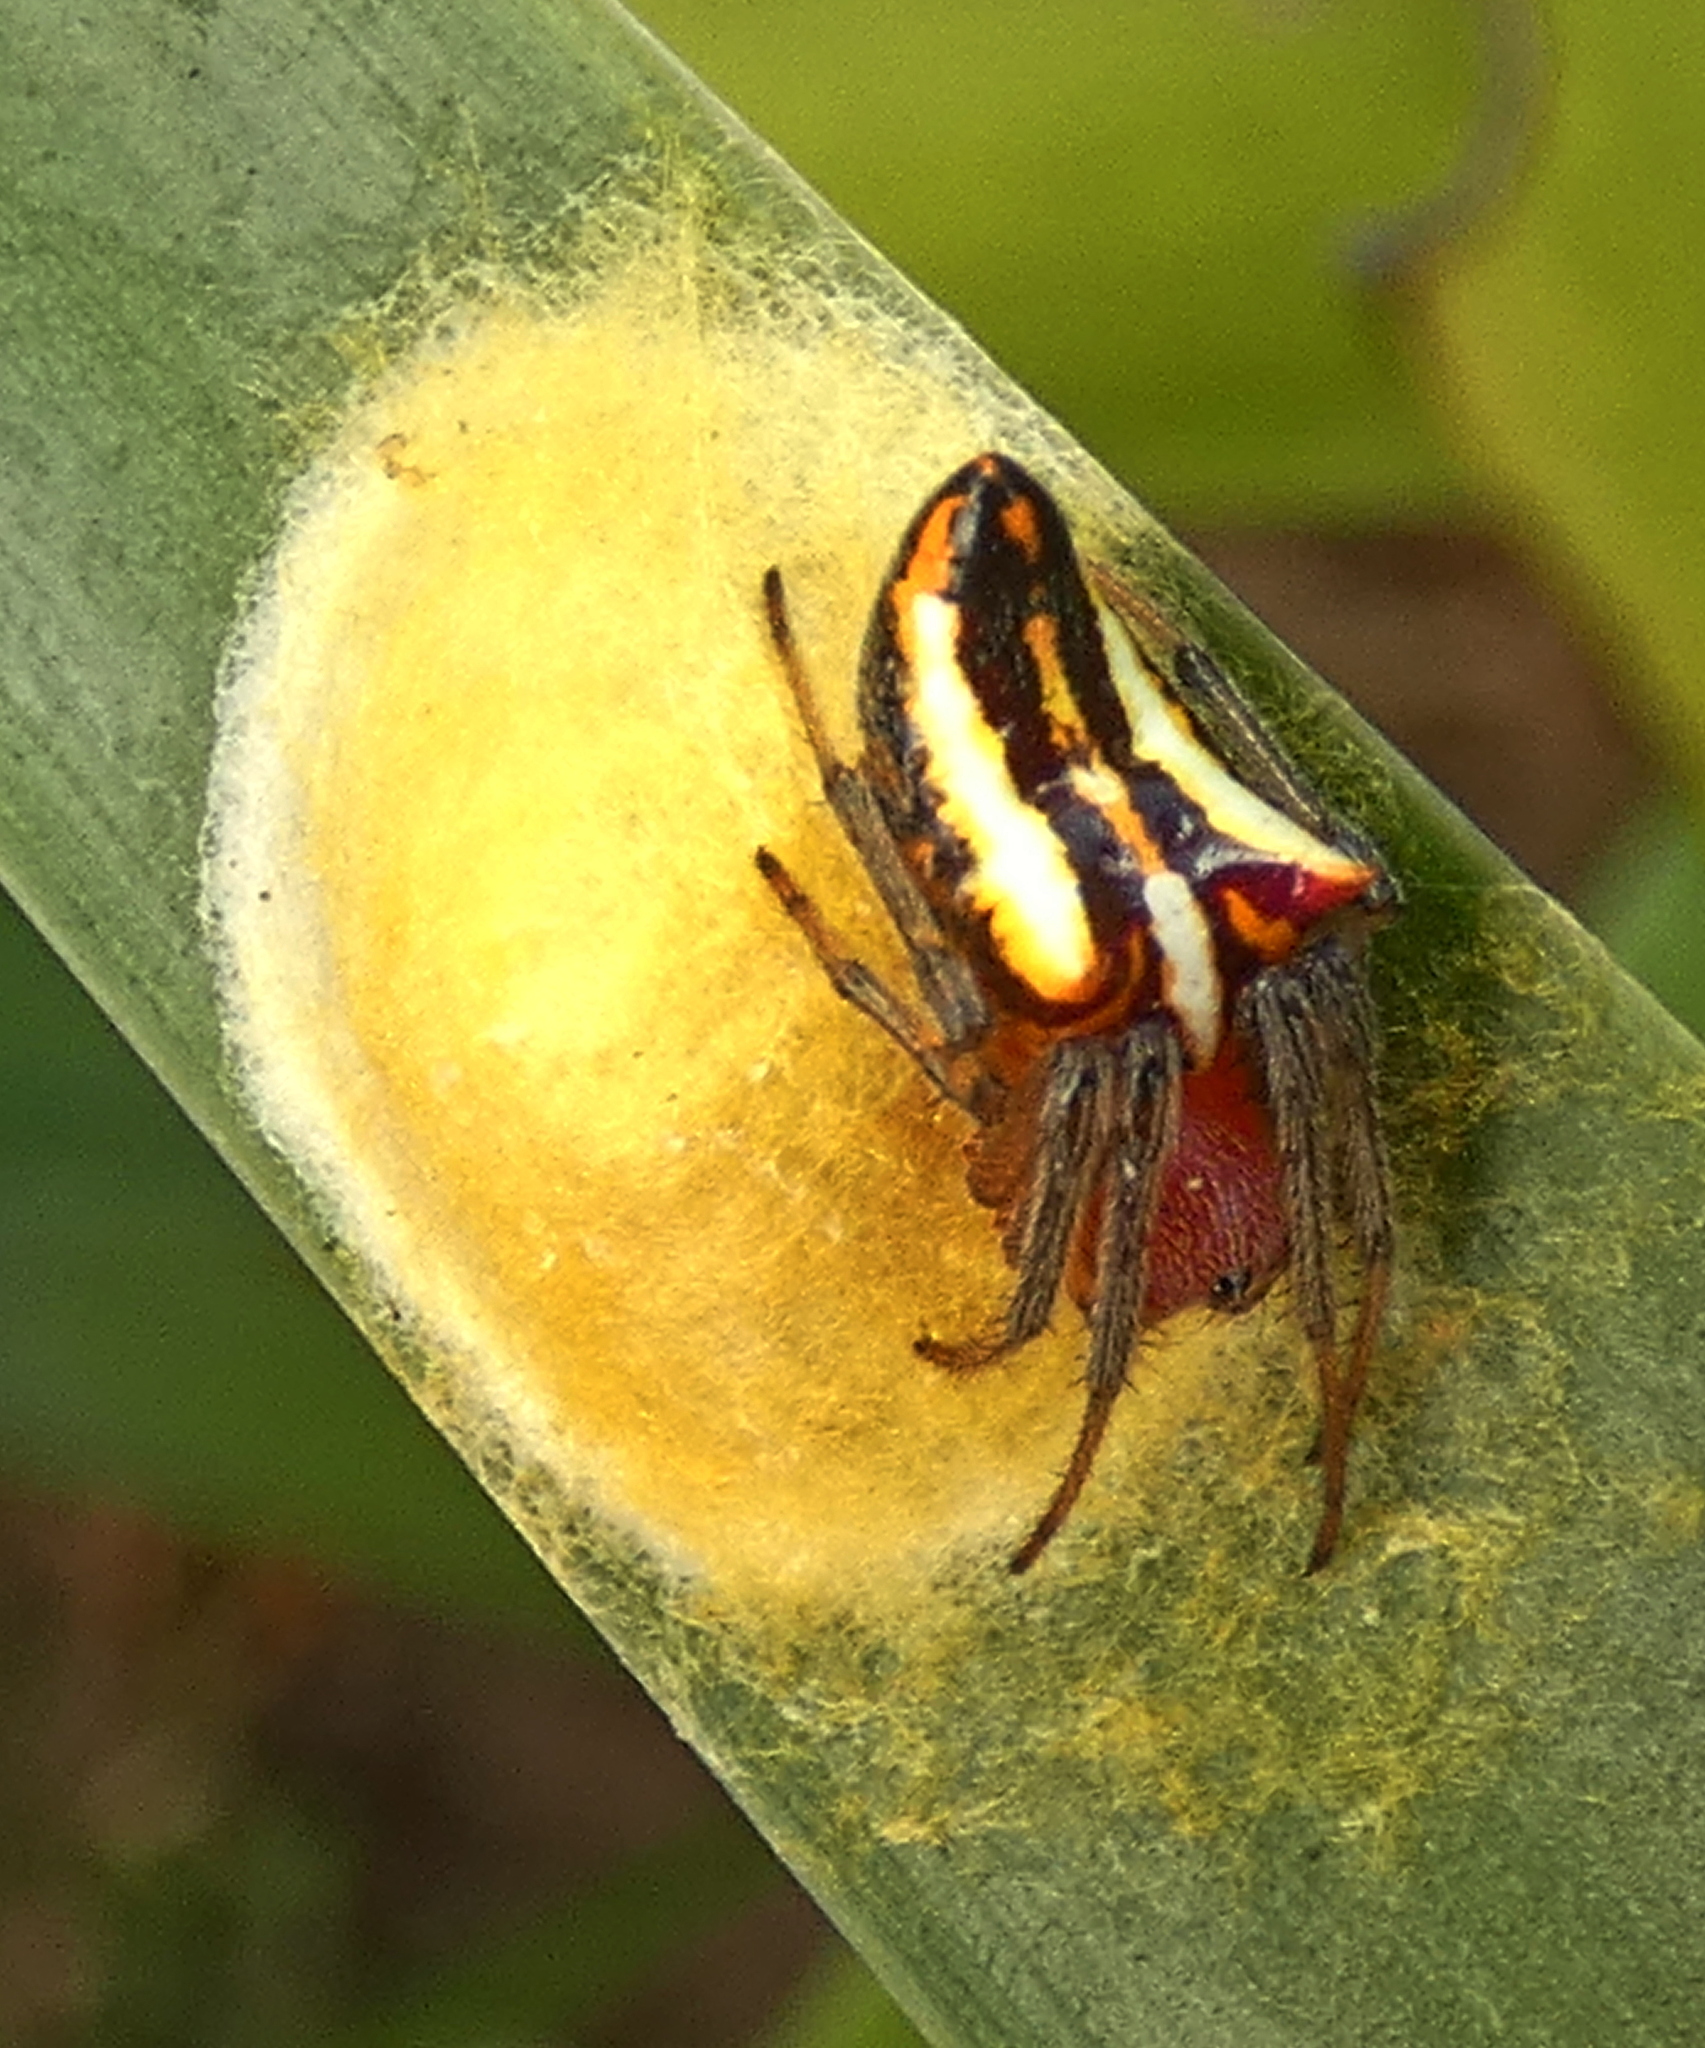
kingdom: Animalia
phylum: Arthropoda
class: Arachnida
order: Araneae
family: Araneidae
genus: Alpaida
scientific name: Alpaida bicornuta
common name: Orb weavers
